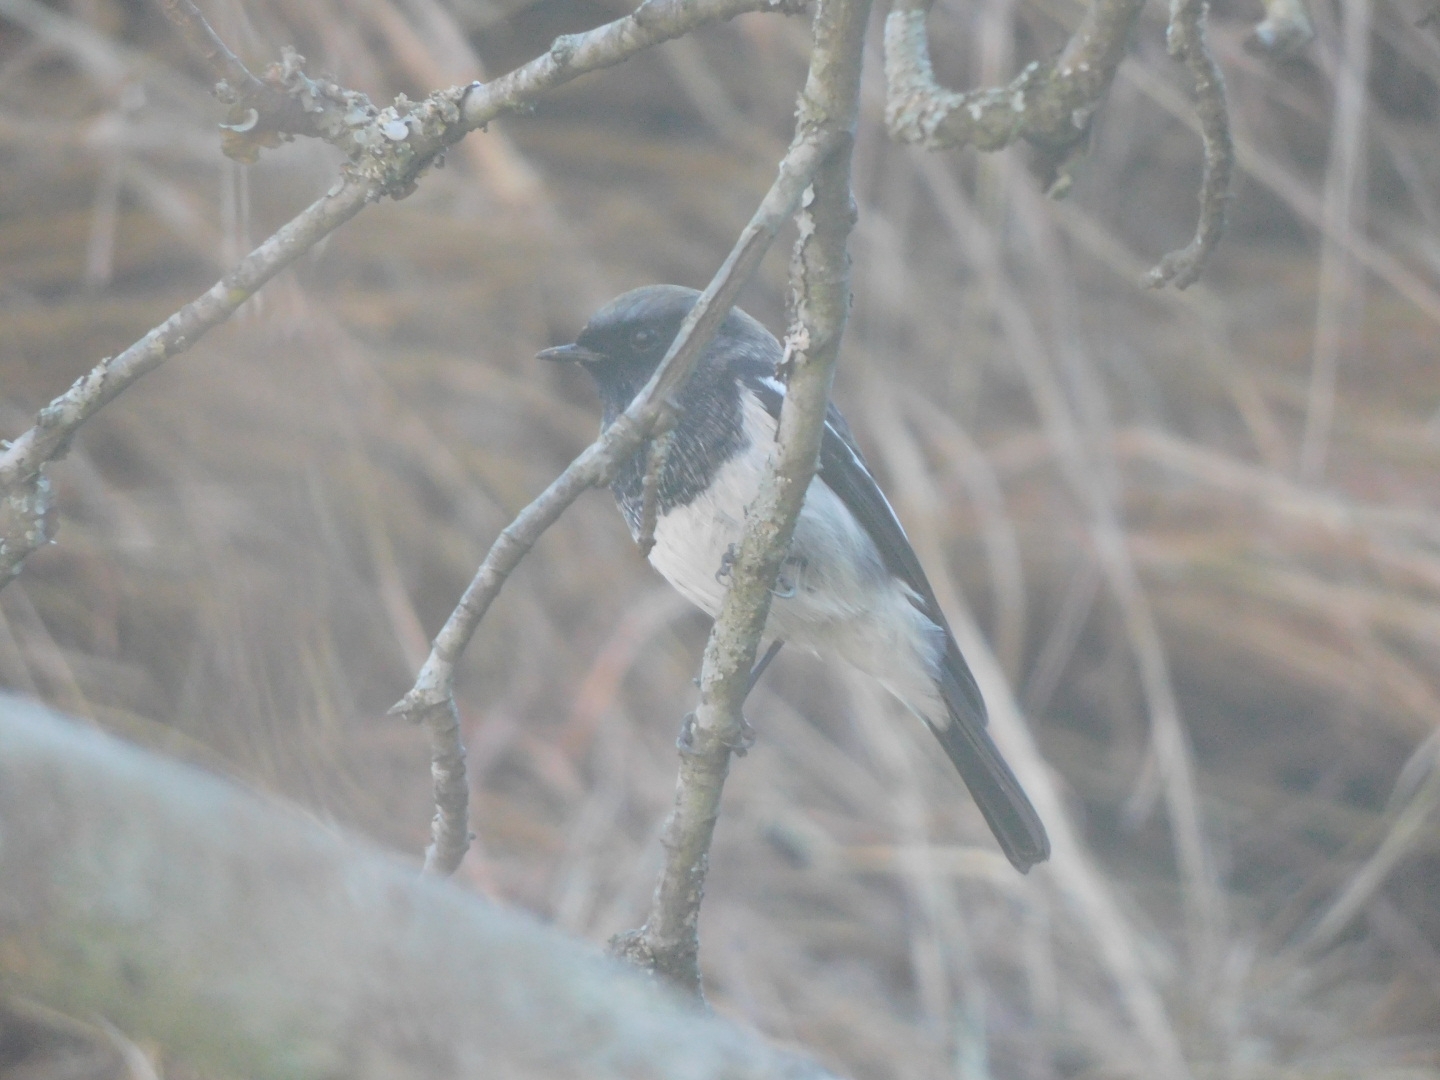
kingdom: Animalia
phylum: Chordata
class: Aves
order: Passeriformes
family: Muscicapidae
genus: Phoenicurus
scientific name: Phoenicurus coeruleocephala
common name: Blue-capped redstart
